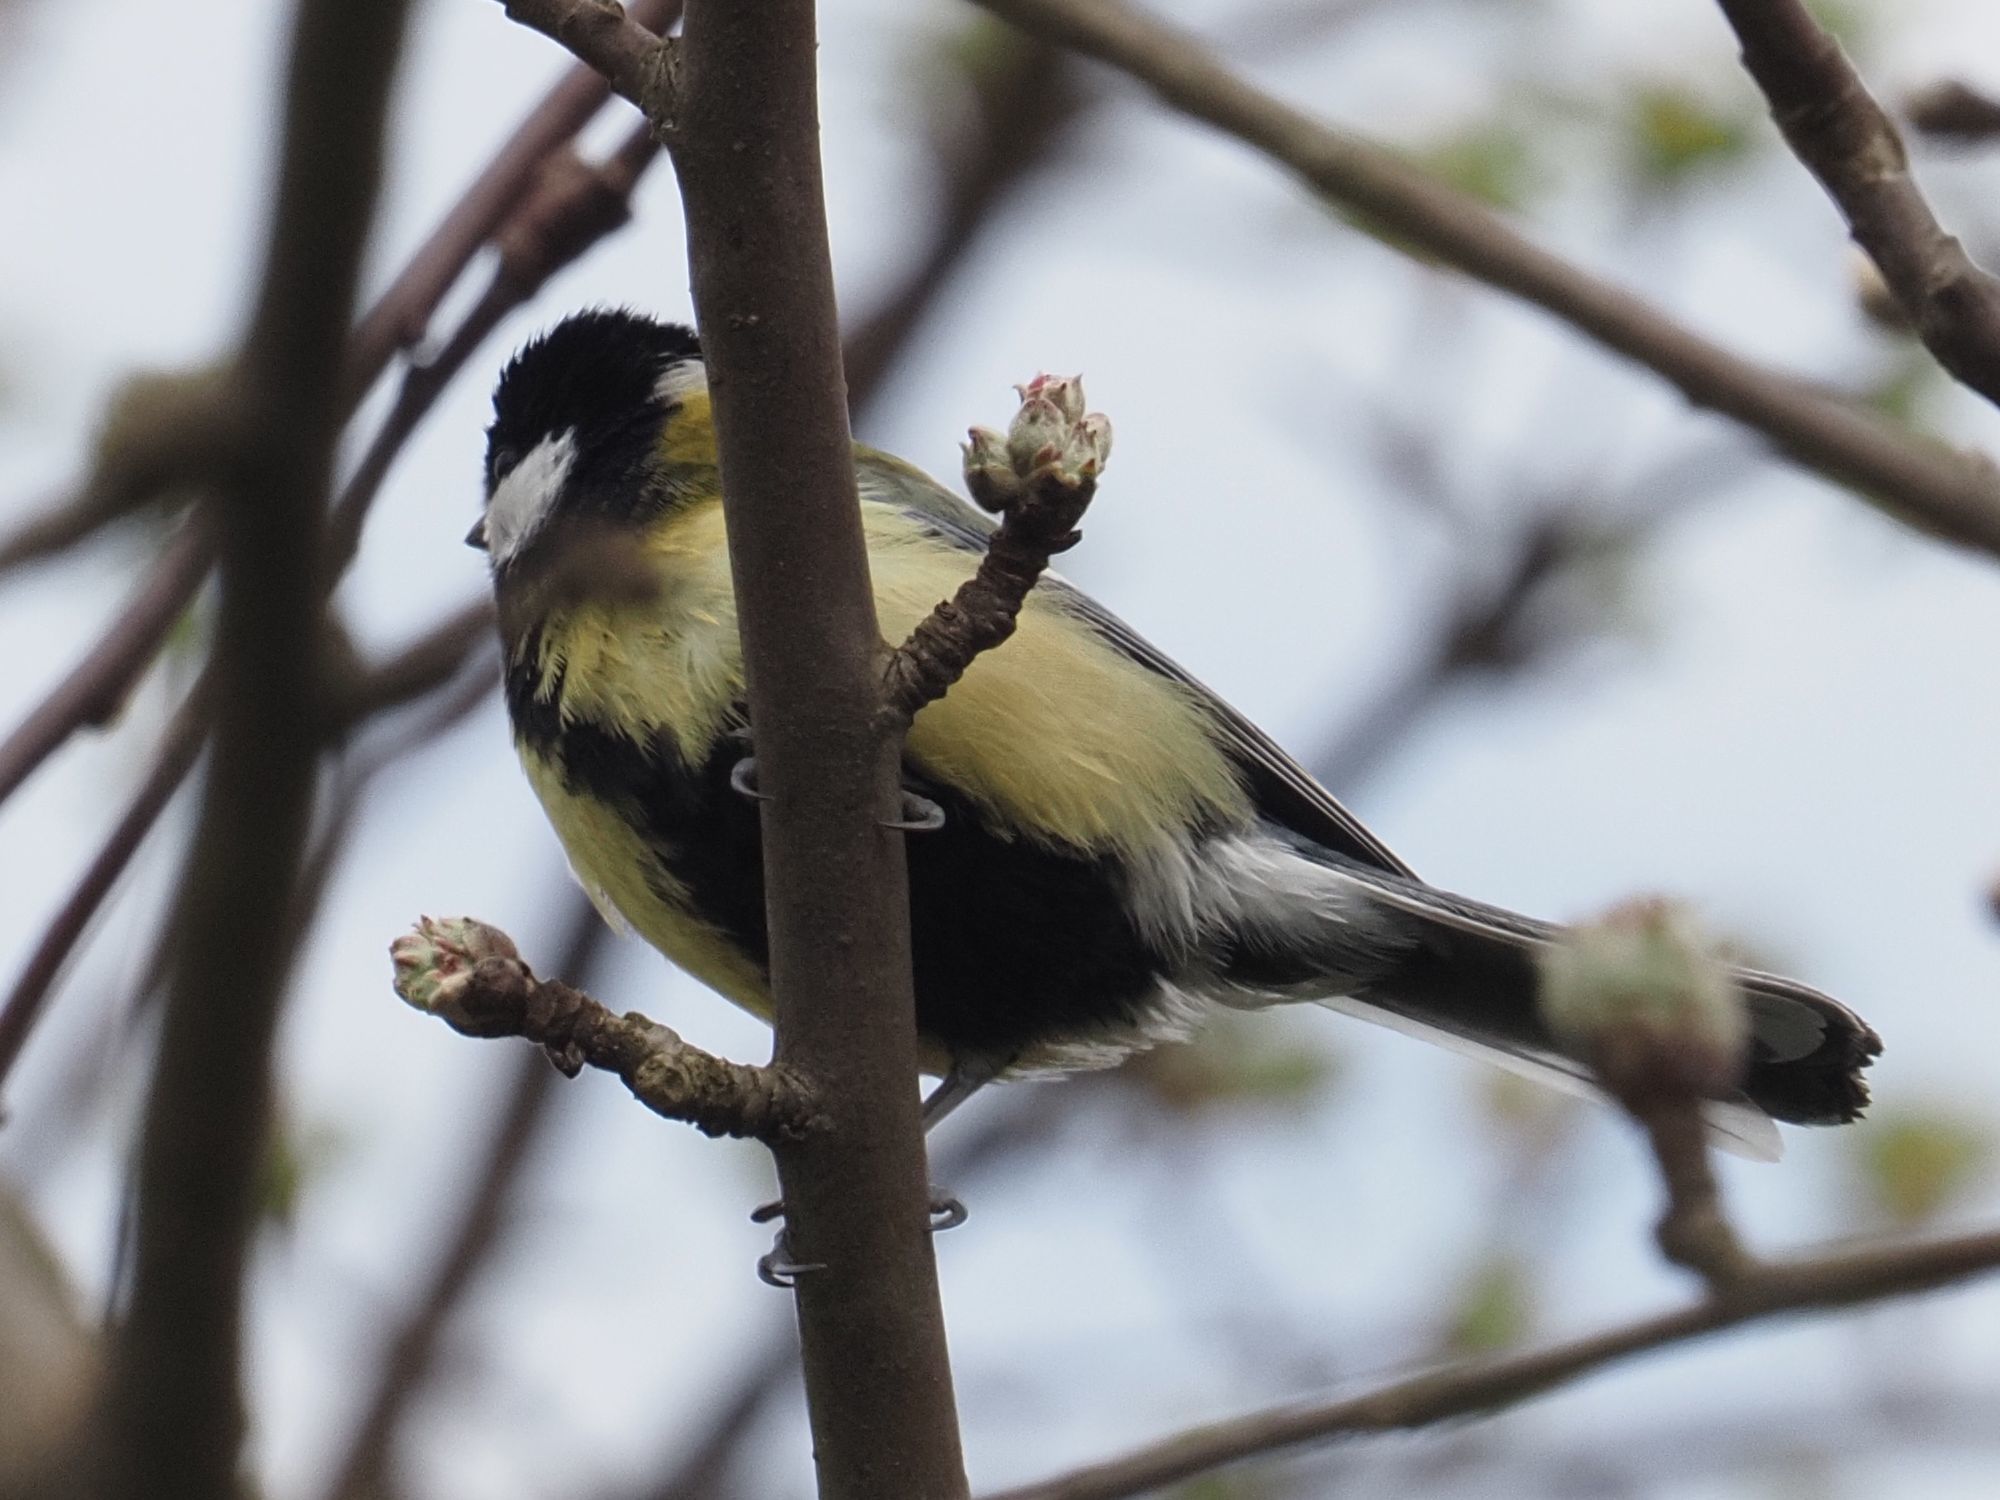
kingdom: Animalia
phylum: Chordata
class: Aves
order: Passeriformes
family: Paridae
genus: Parus
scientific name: Parus major
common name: Great tit
